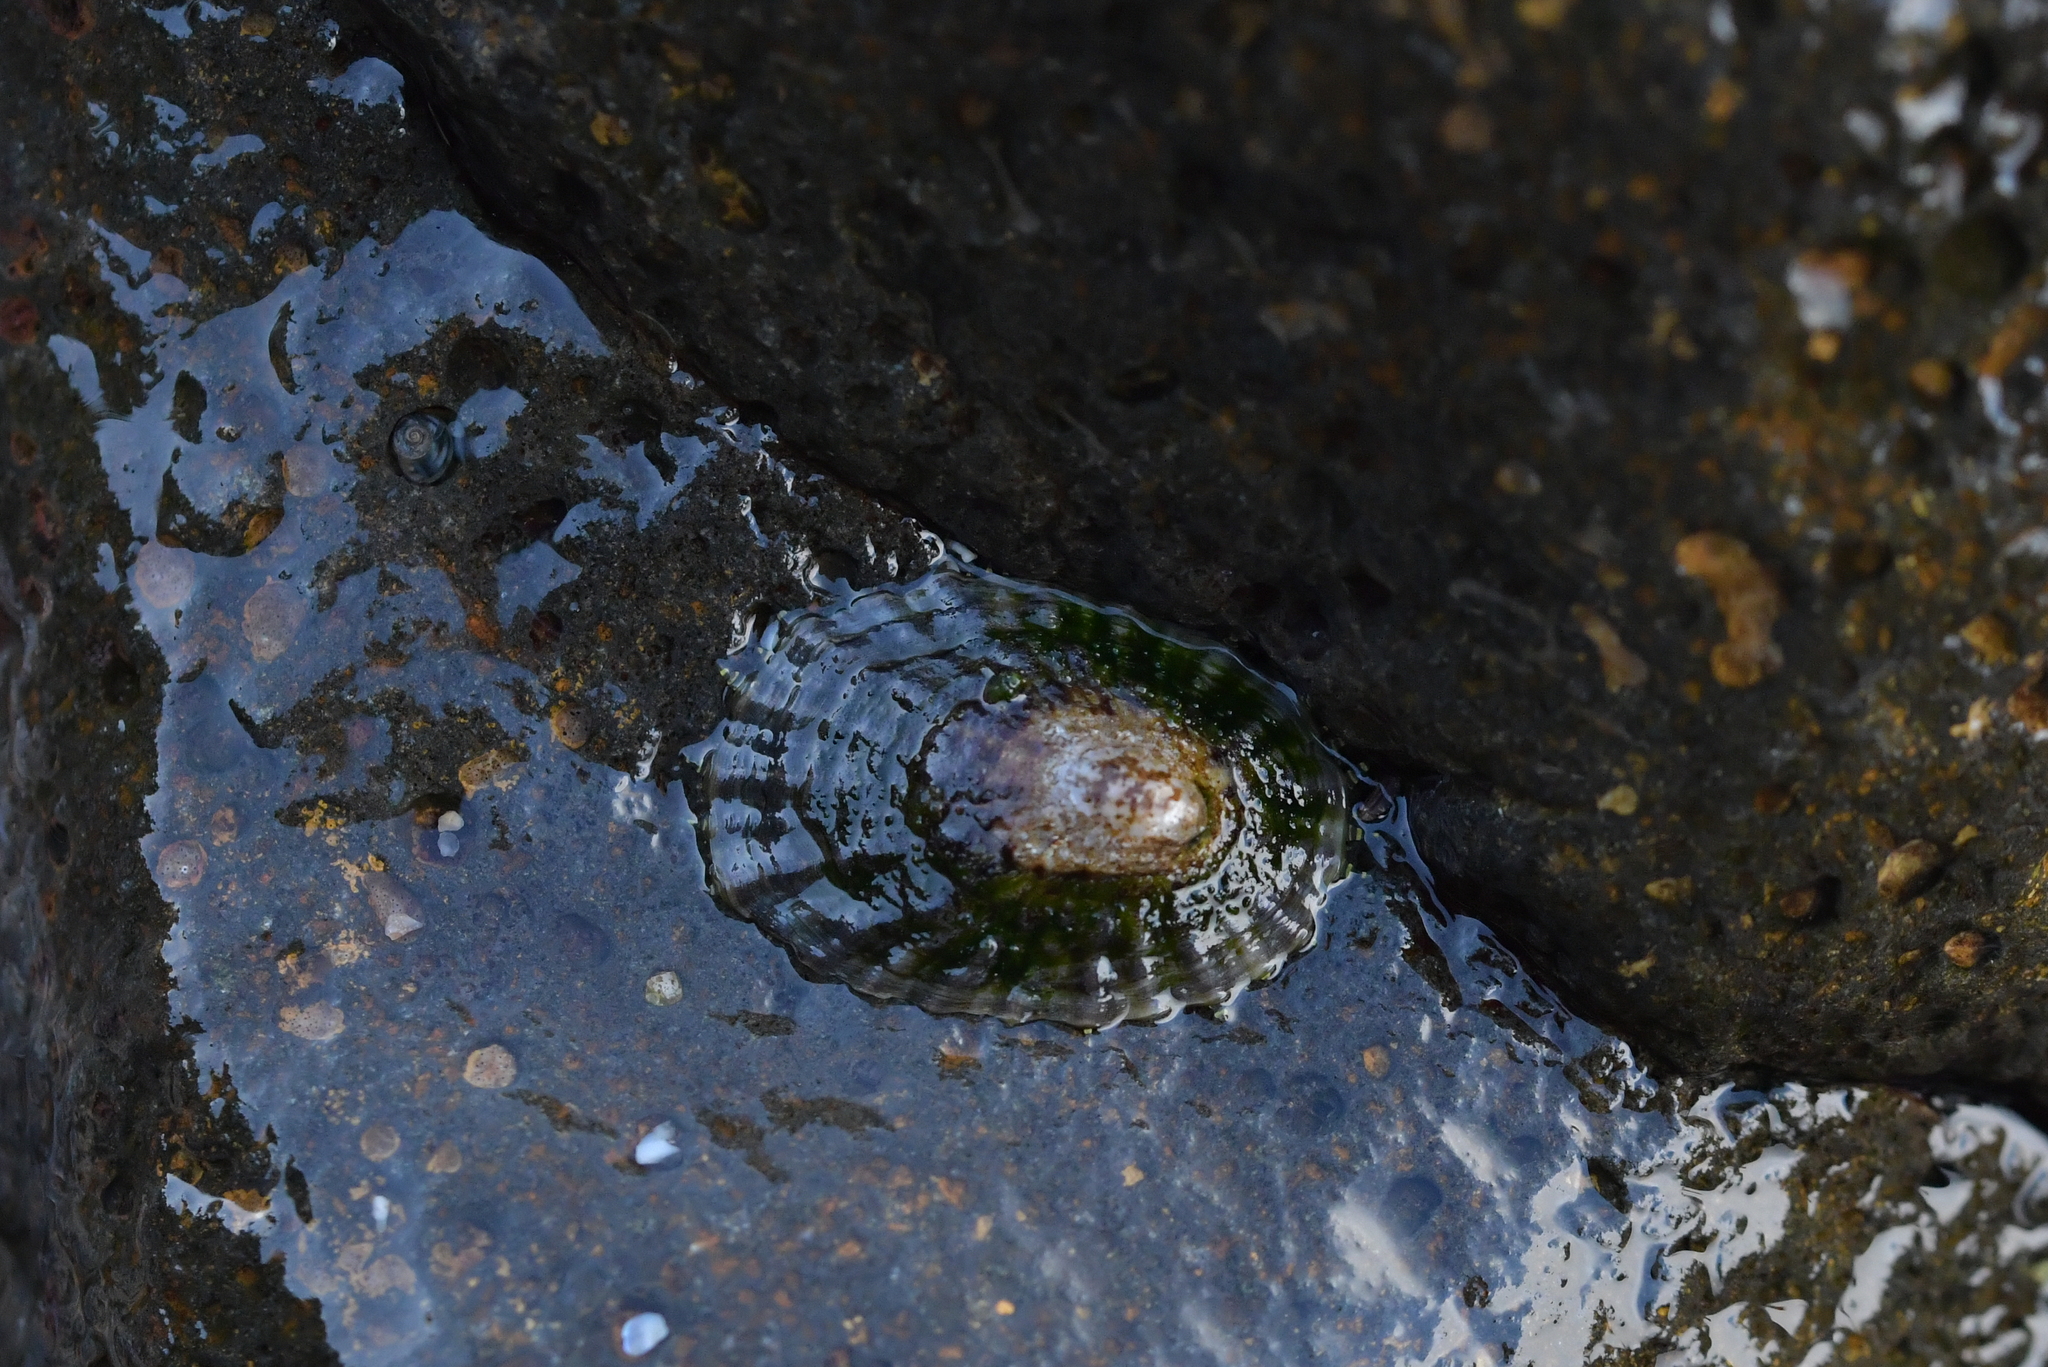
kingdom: Animalia
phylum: Mollusca
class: Gastropoda
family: Nacellidae
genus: Cellana
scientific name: Cellana oliveri
